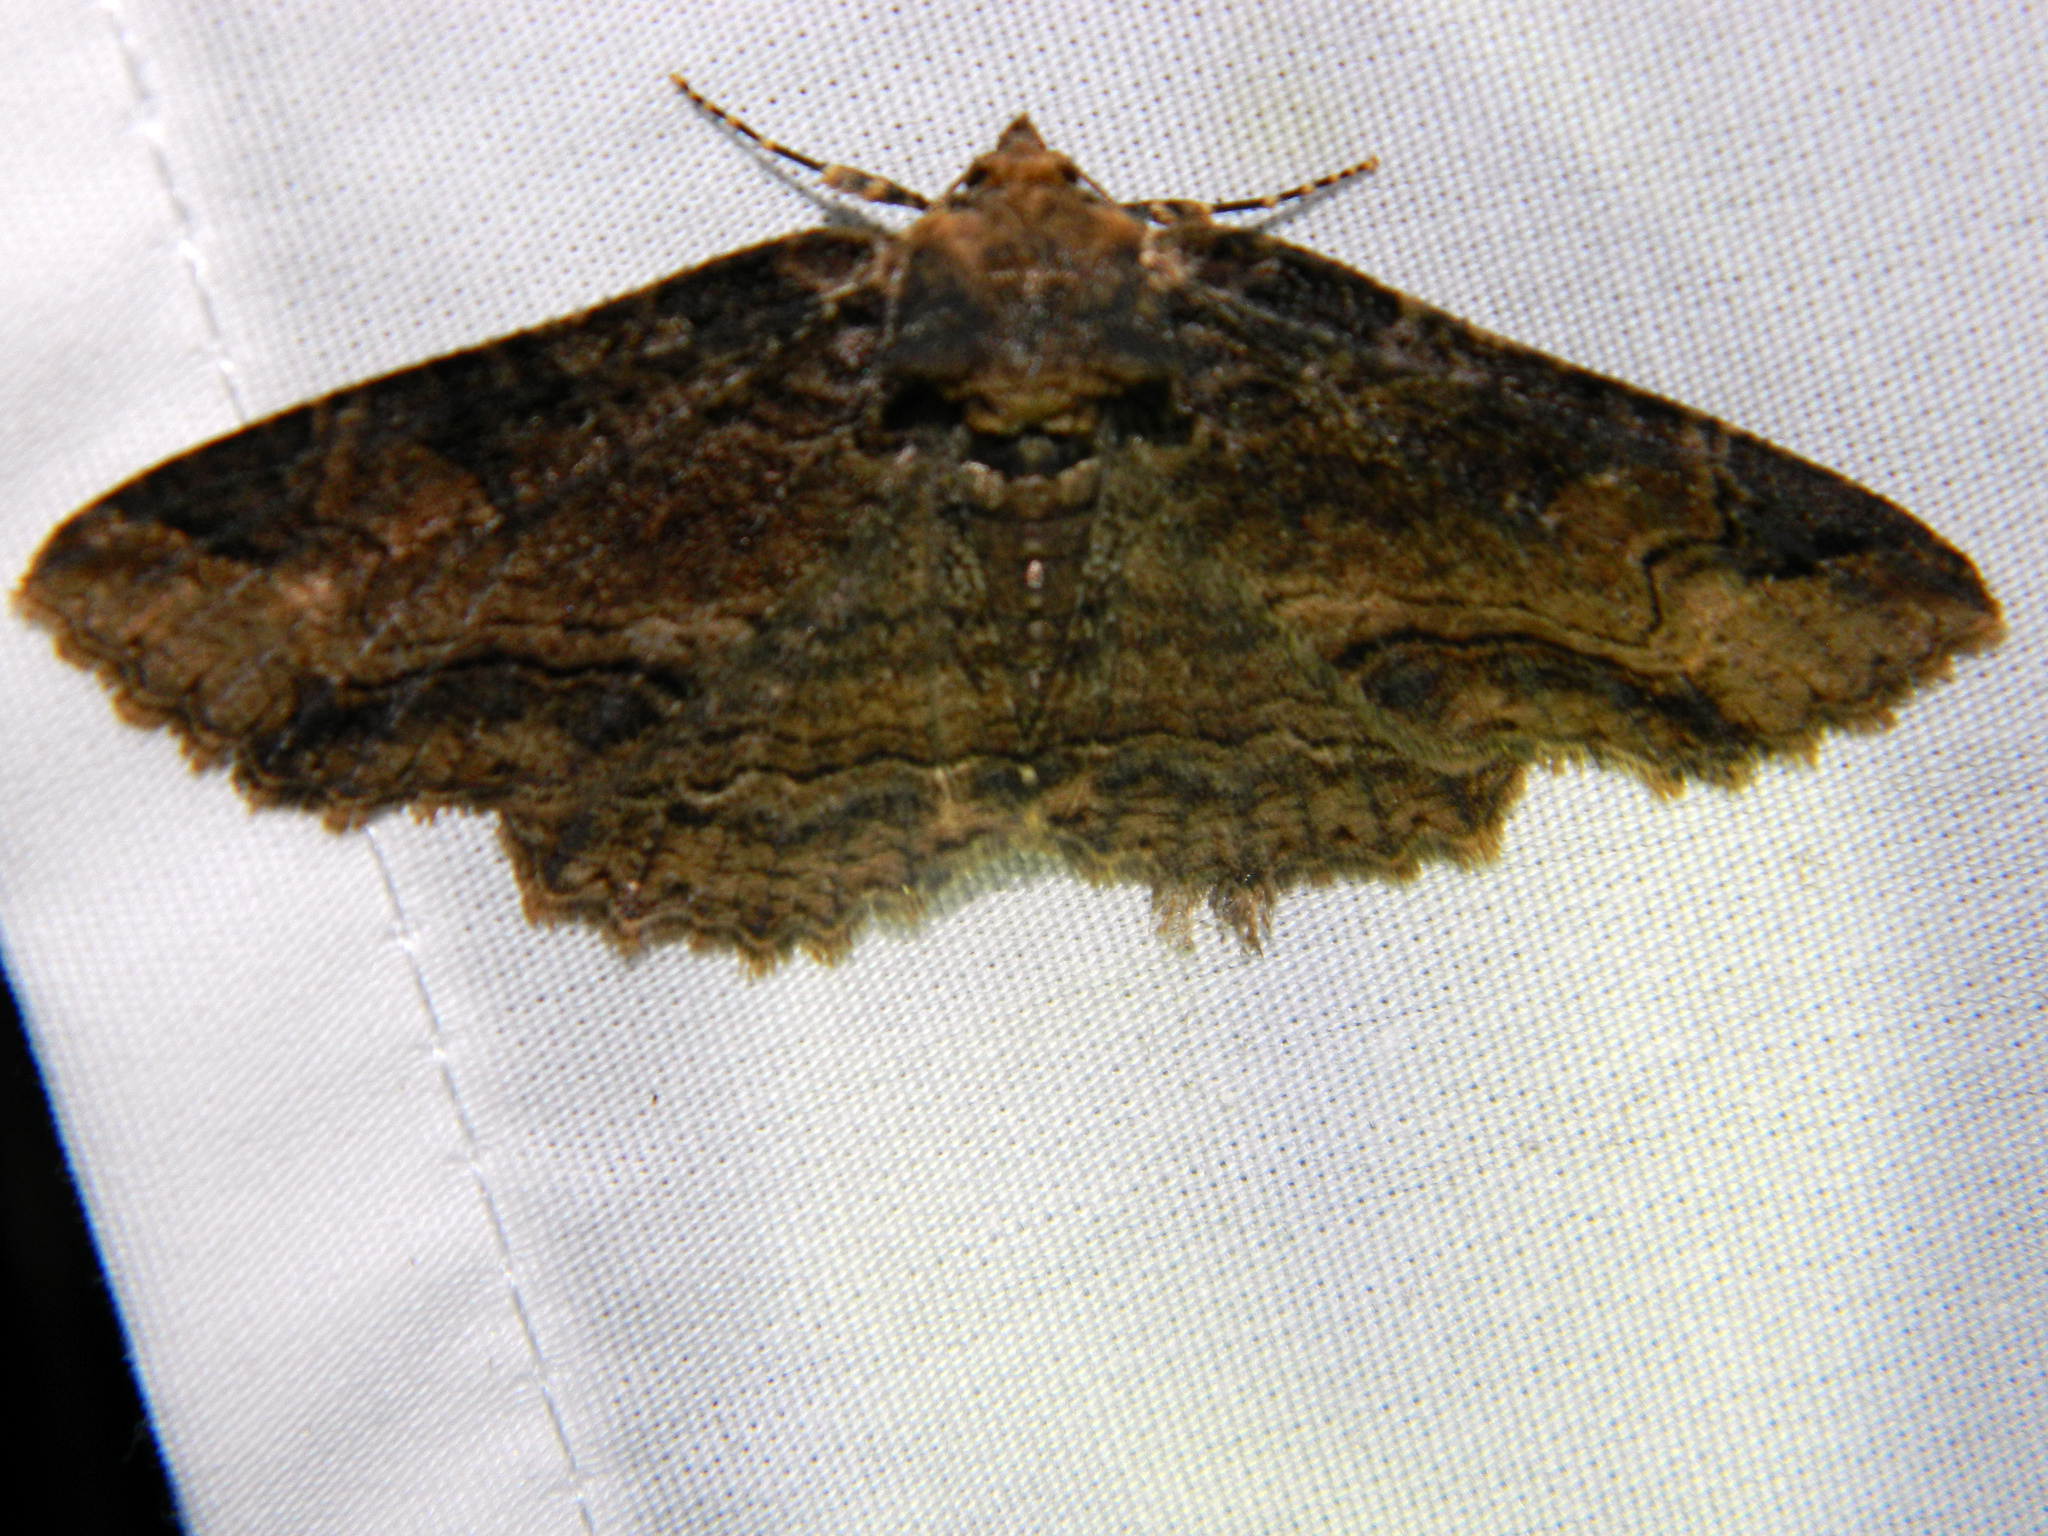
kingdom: Animalia
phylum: Arthropoda
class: Insecta
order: Lepidoptera
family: Erebidae
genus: Zale
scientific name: Zale minerea
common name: Colorful zale moth
